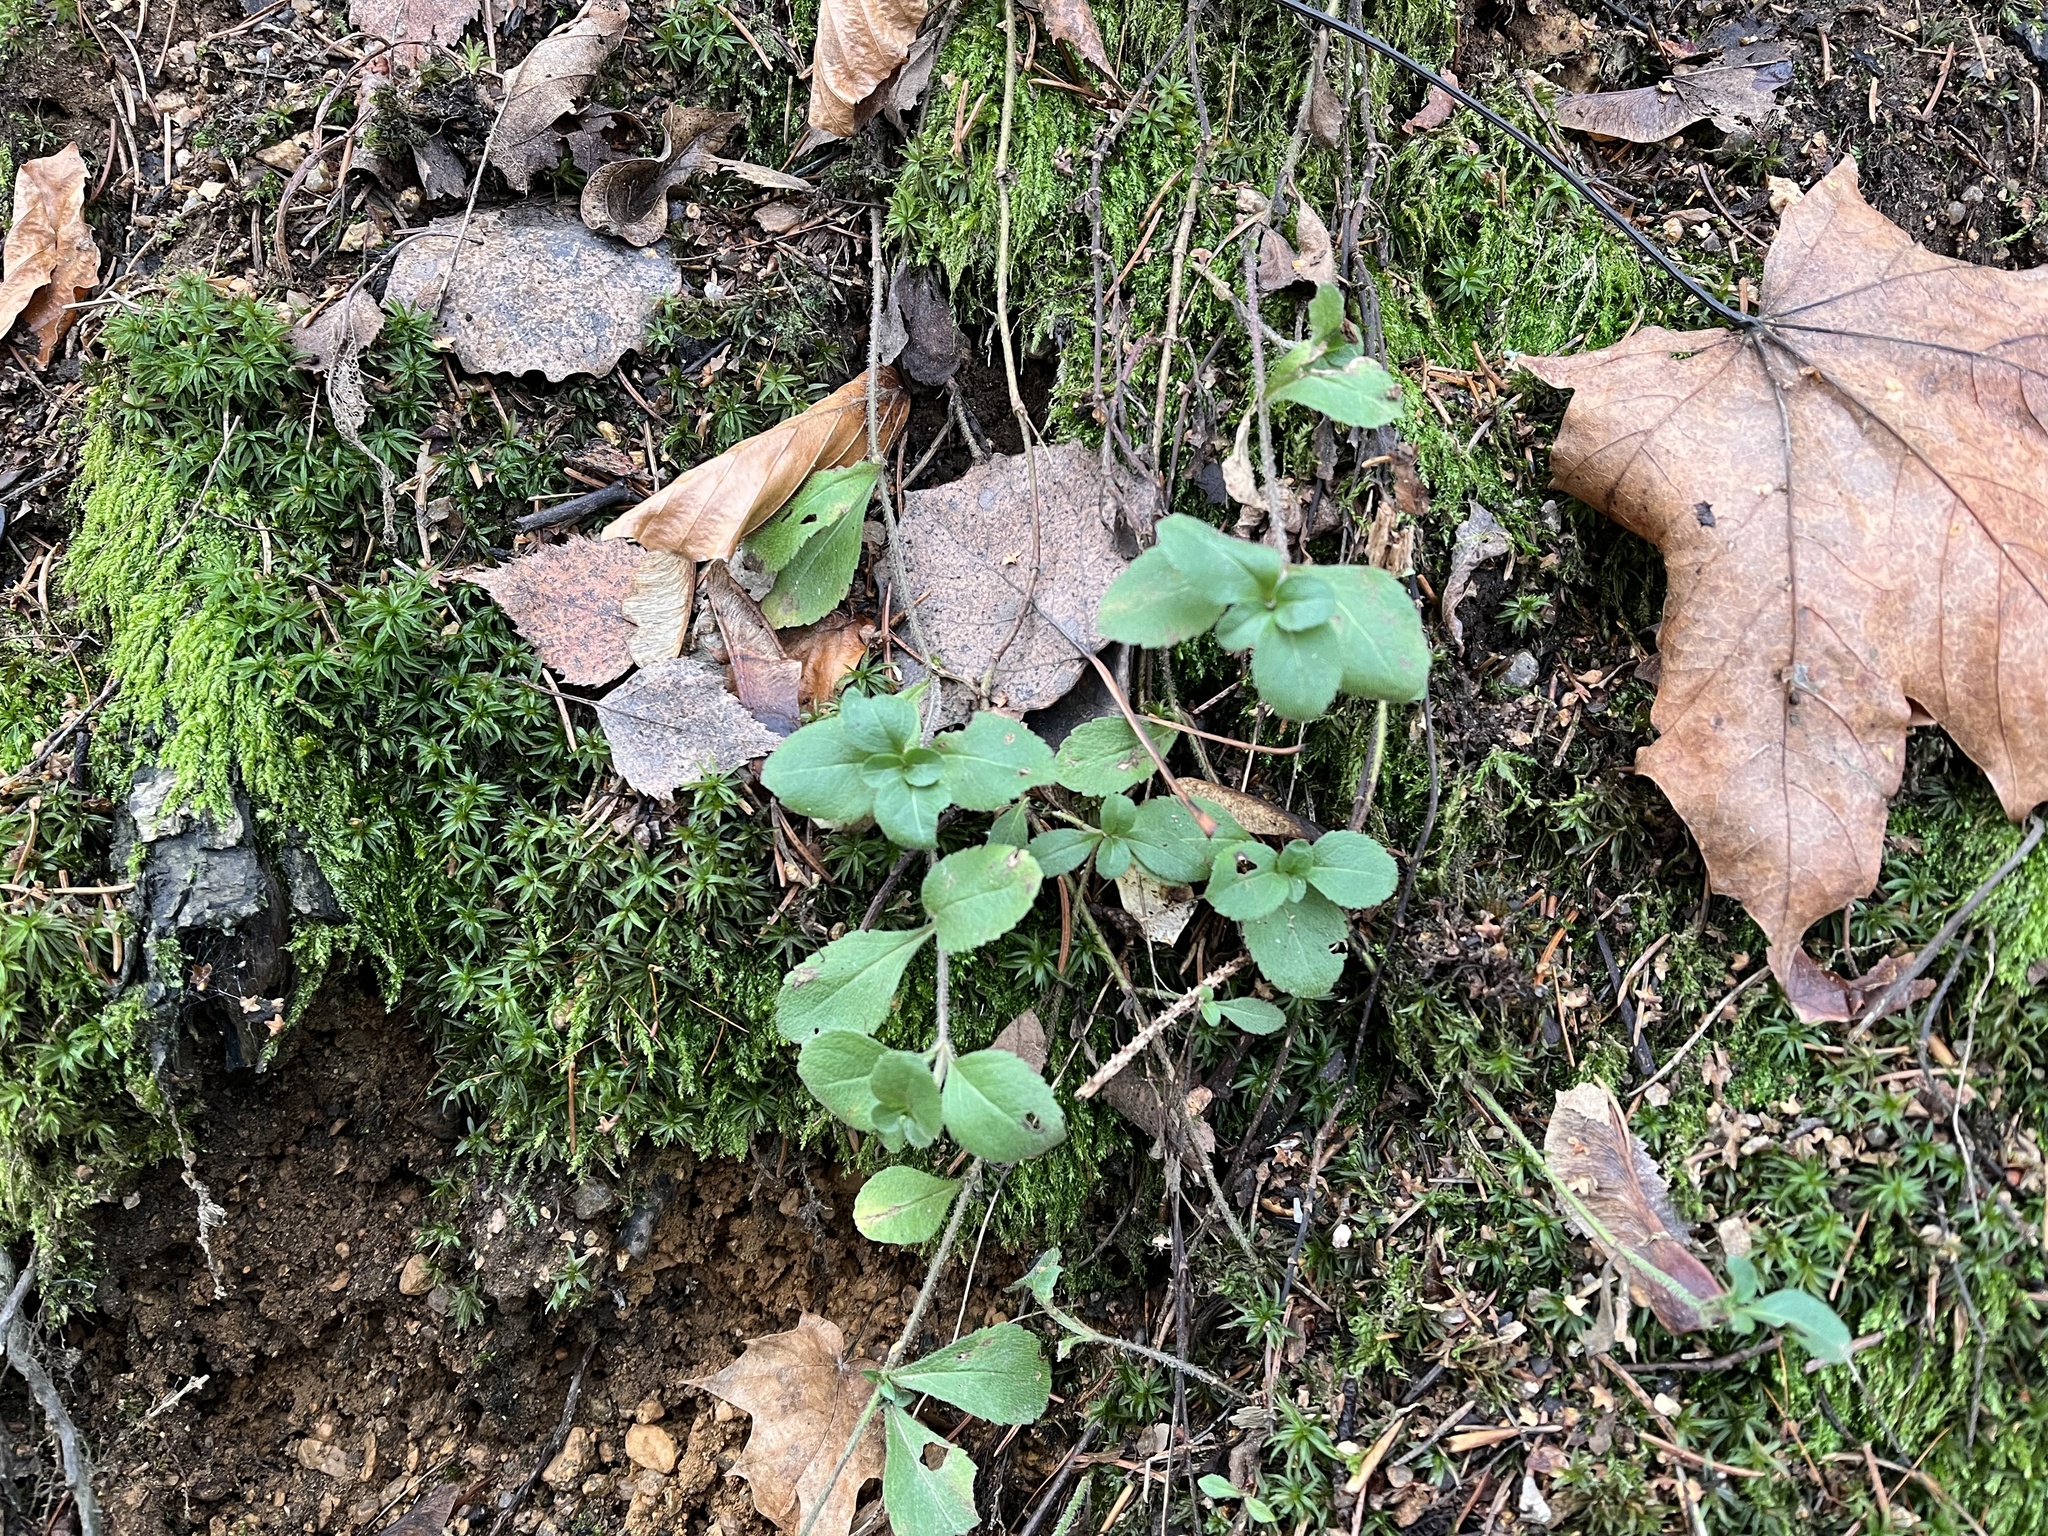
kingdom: Plantae
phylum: Tracheophyta
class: Magnoliopsida
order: Lamiales
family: Plantaginaceae
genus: Veronica
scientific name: Veronica officinalis
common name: Common speedwell
